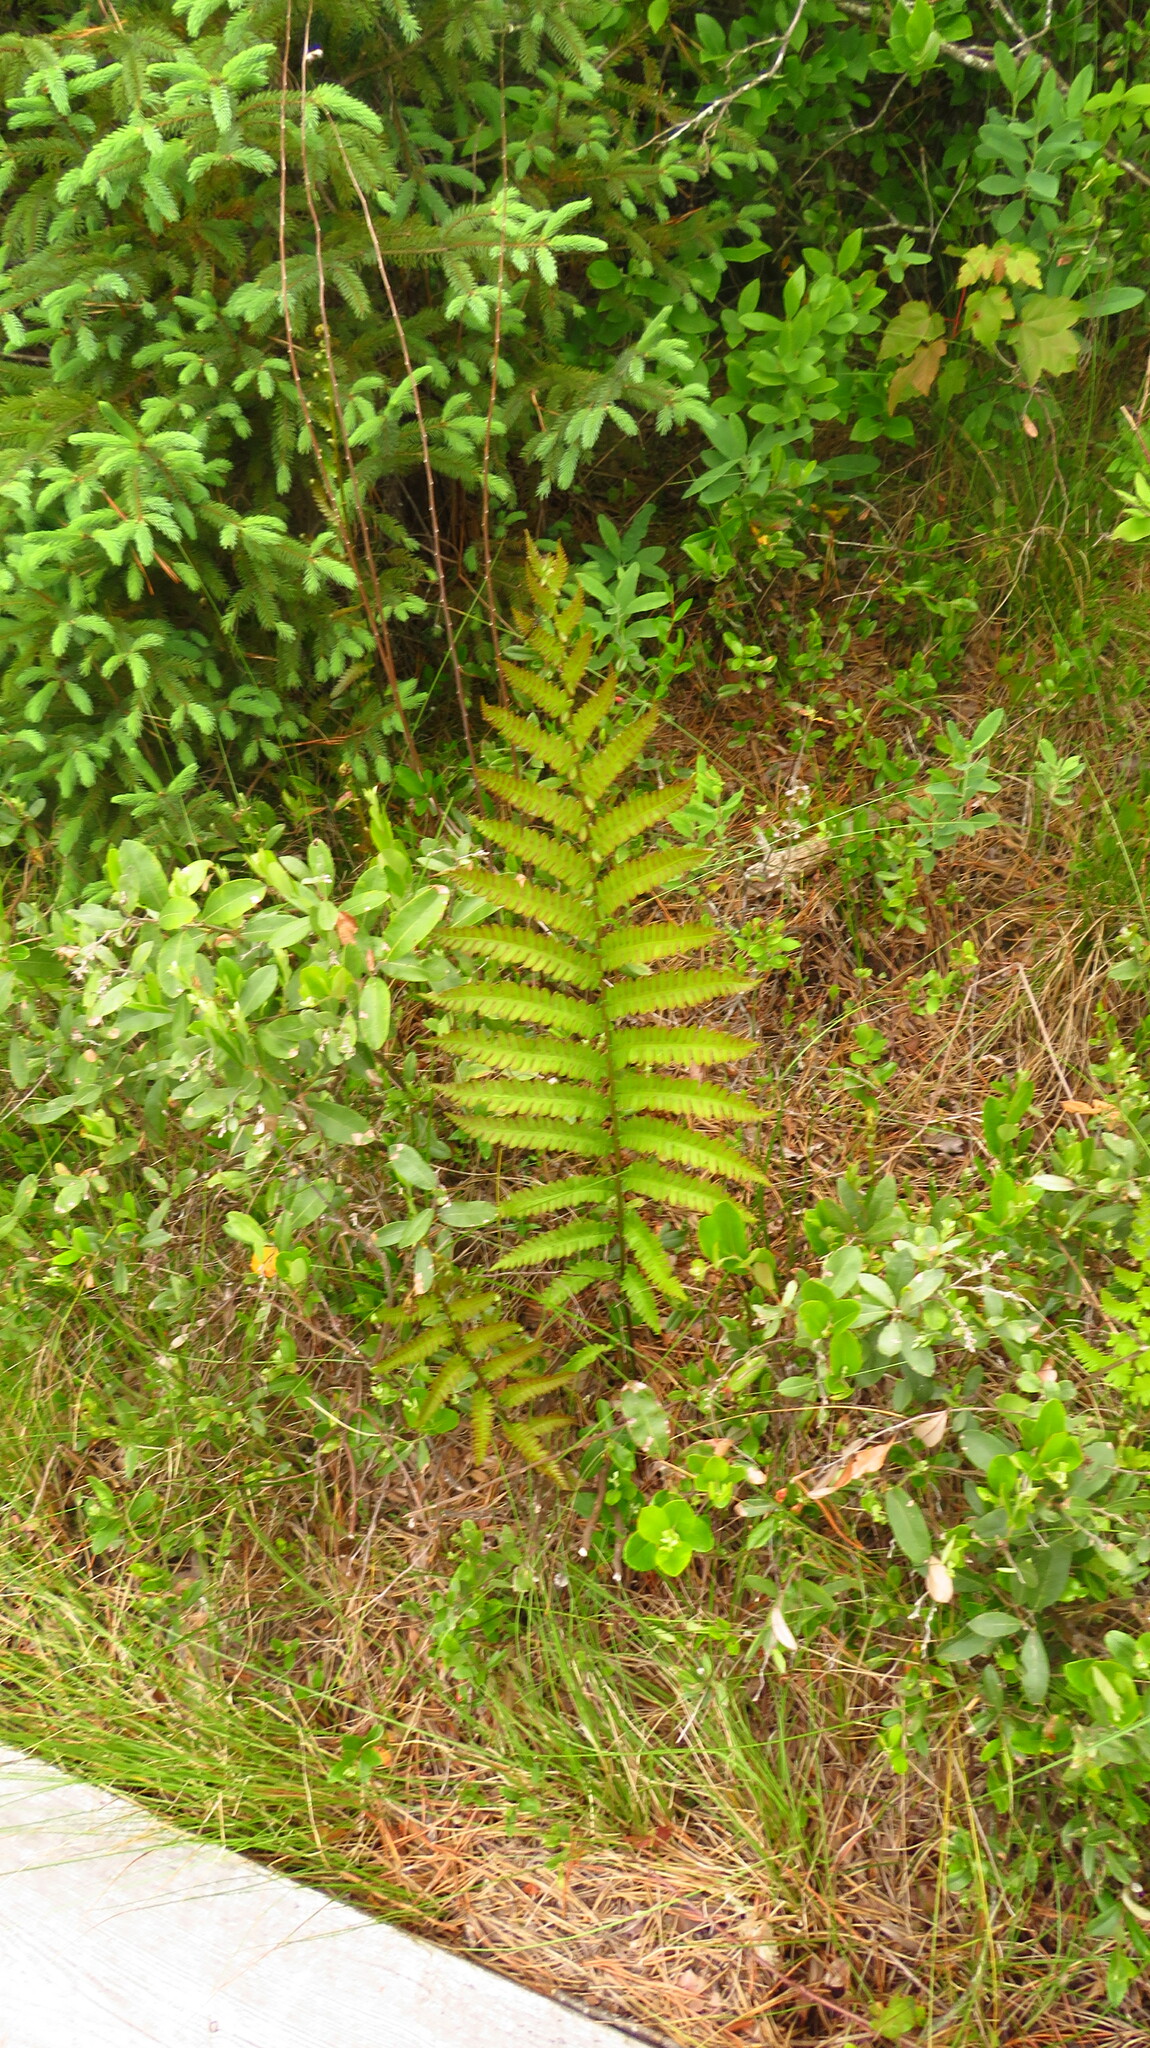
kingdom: Plantae
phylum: Tracheophyta
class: Polypodiopsida
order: Polypodiales
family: Blechnaceae
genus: Anchistea
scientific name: Anchistea virginica
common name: Virginia chain fern
